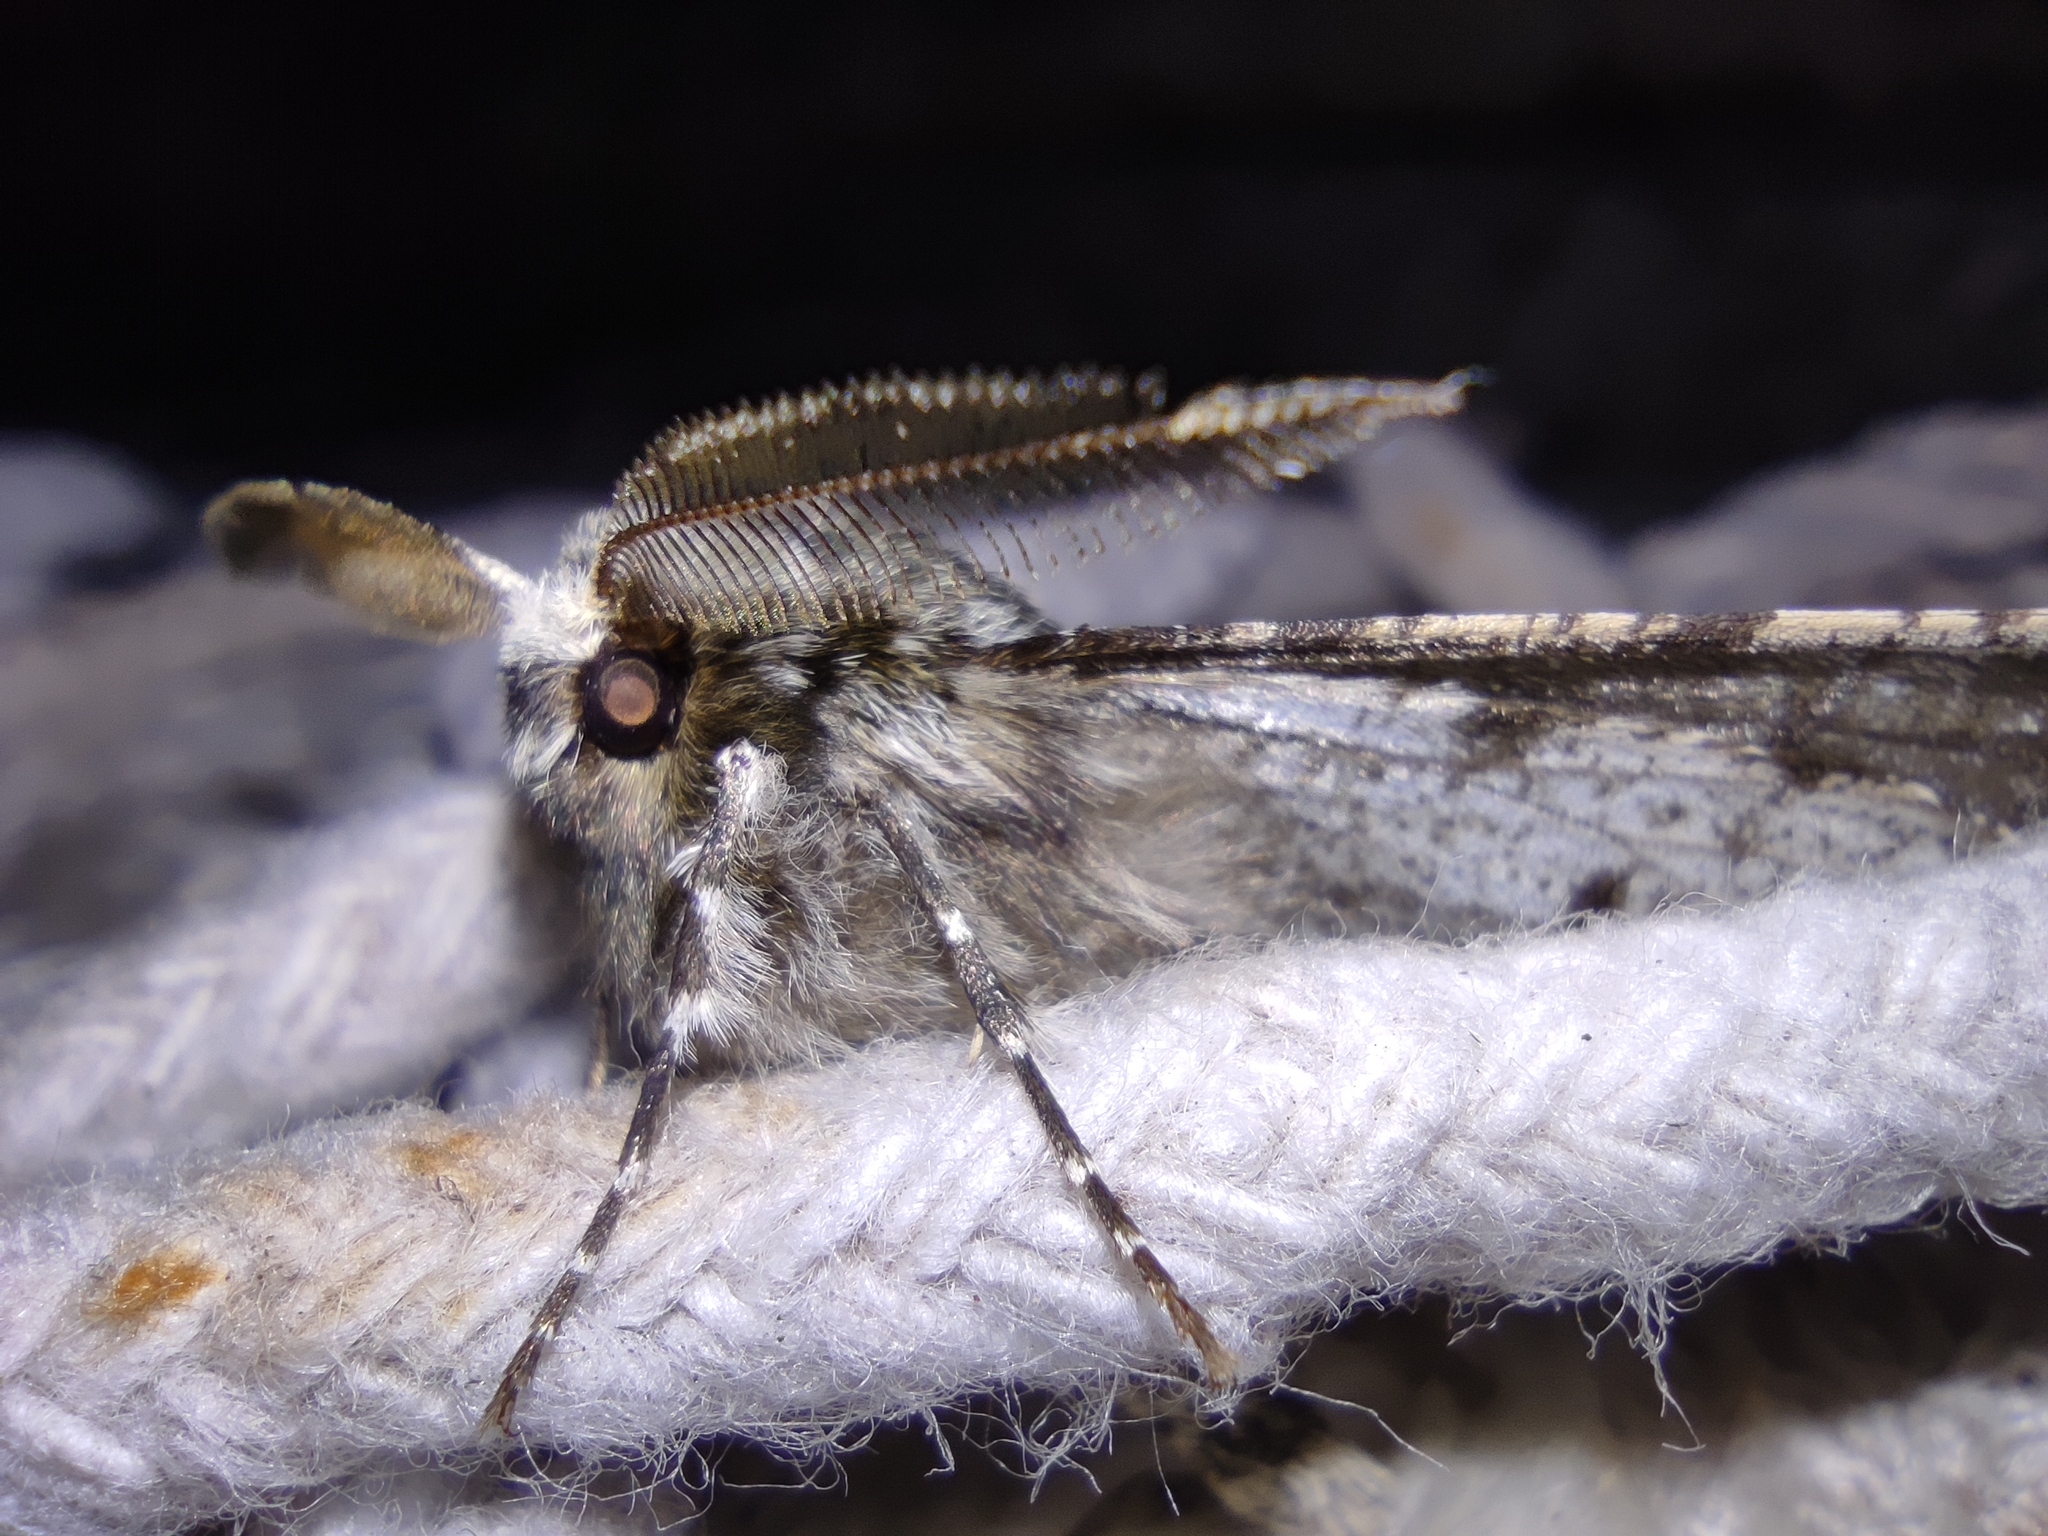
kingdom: Animalia
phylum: Arthropoda
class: Insecta
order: Lepidoptera
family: Geometridae
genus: Phigalia
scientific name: Phigalia pilosaria
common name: Pale brindled beauty
